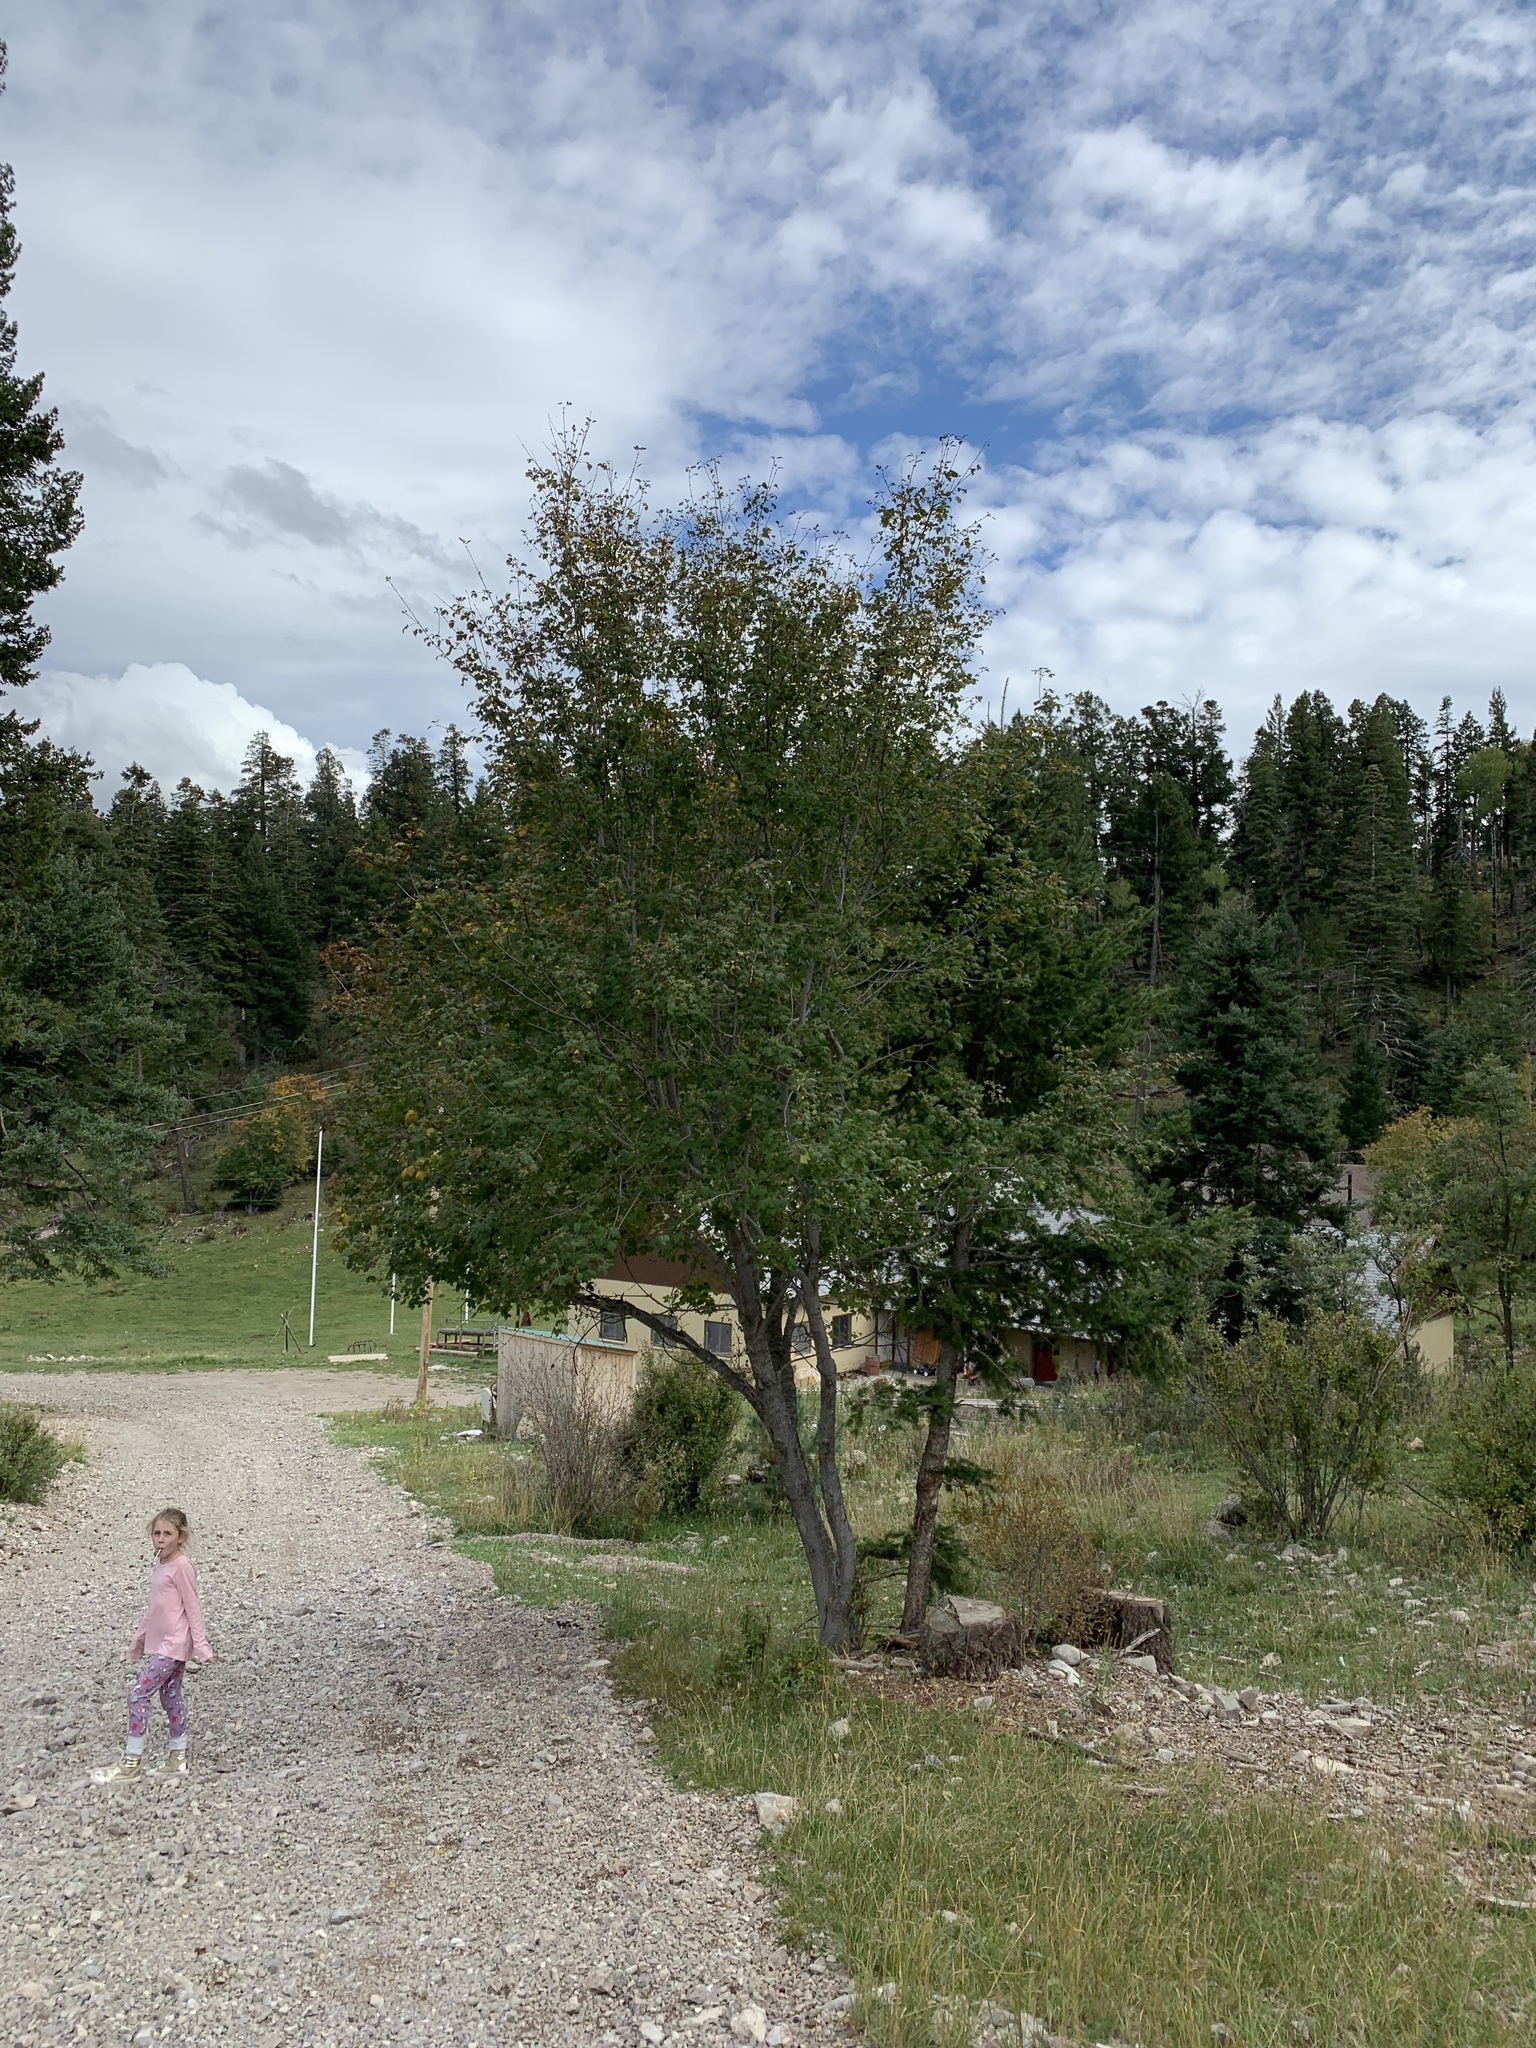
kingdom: Plantae
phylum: Tracheophyta
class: Magnoliopsida
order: Sapindales
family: Sapindaceae
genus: Acer
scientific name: Acer negundo
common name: Ashleaf maple
